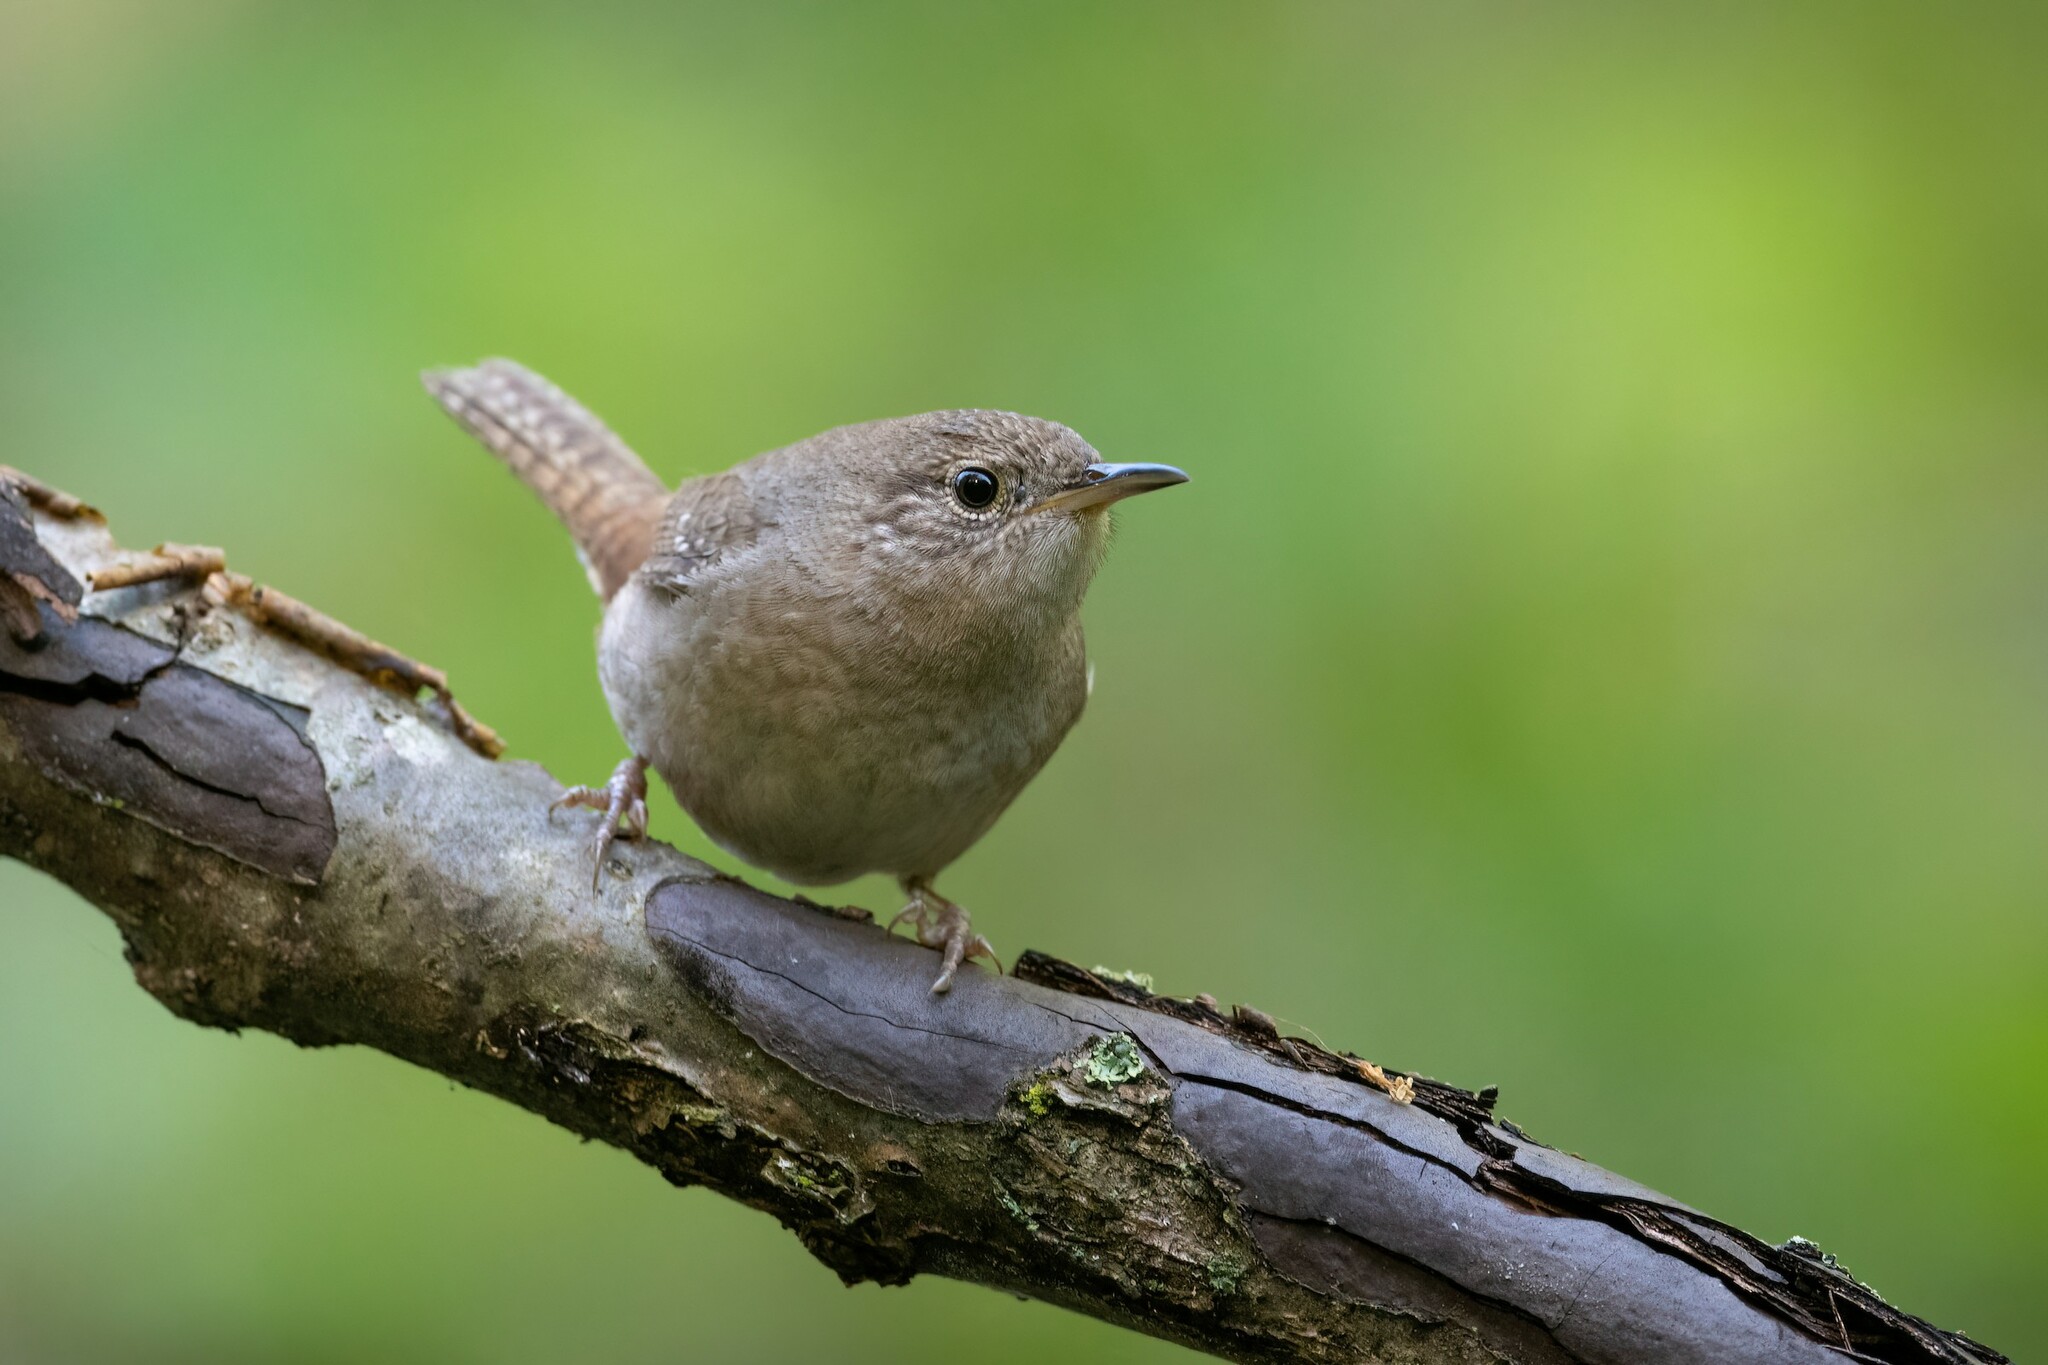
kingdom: Animalia
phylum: Chordata
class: Aves
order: Passeriformes
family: Troglodytidae
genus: Troglodytes
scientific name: Troglodytes aedon
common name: House wren
